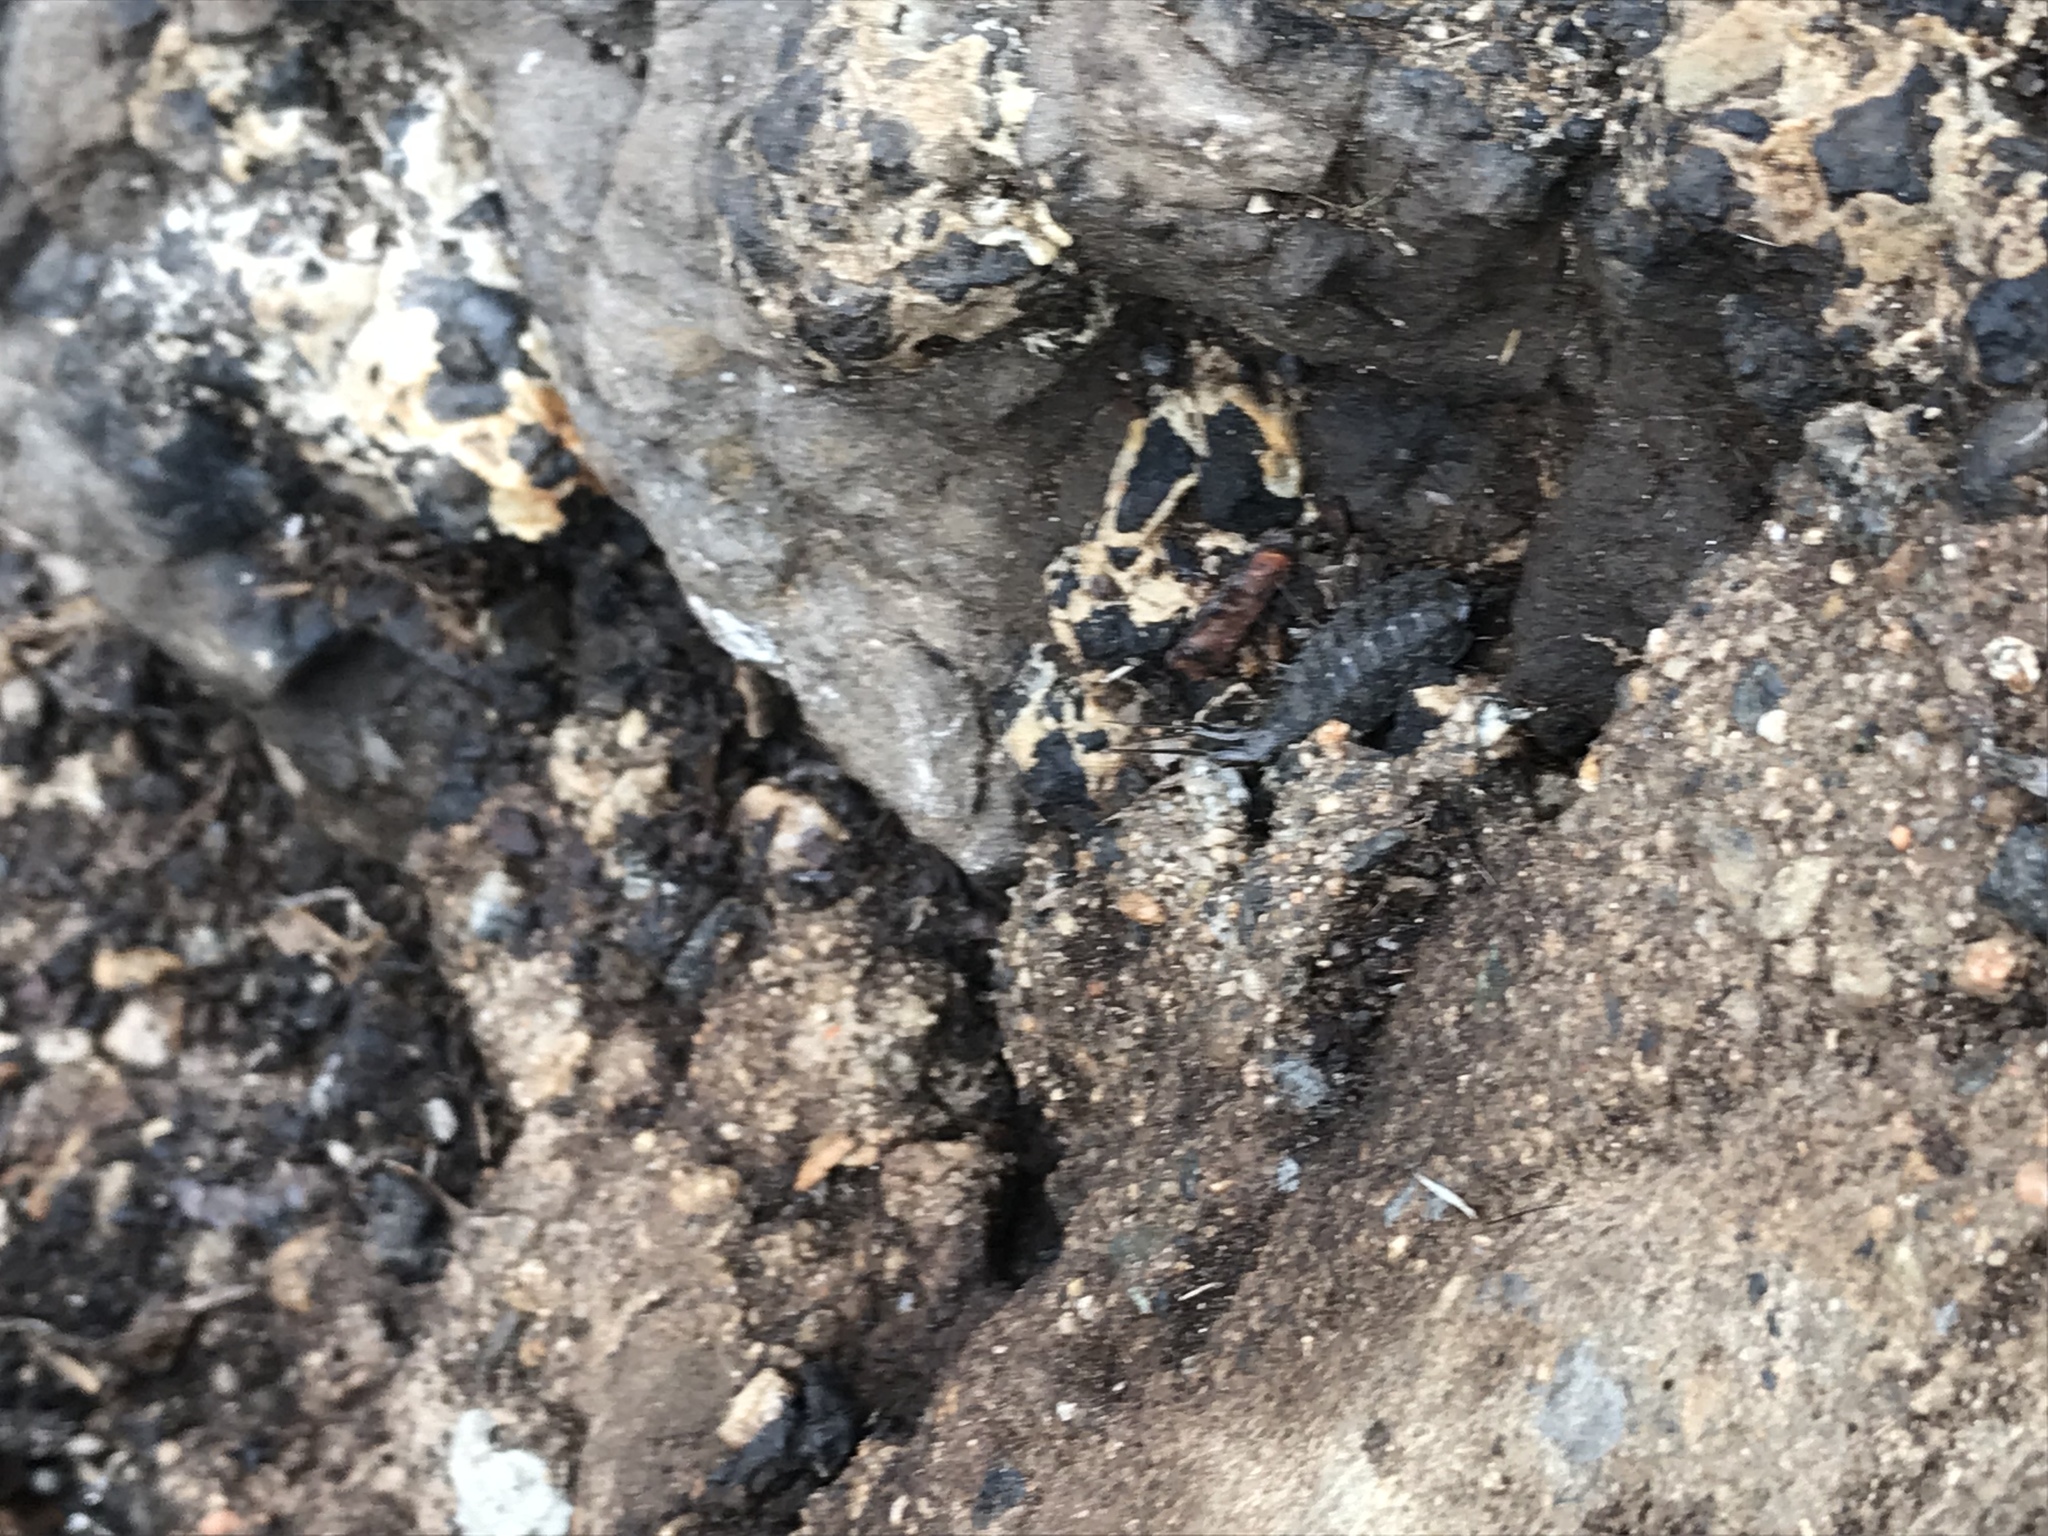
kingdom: Animalia
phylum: Arthropoda
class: Malacostraca
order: Isopoda
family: Ligiidae
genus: Ligia
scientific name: Ligia occidentalis
